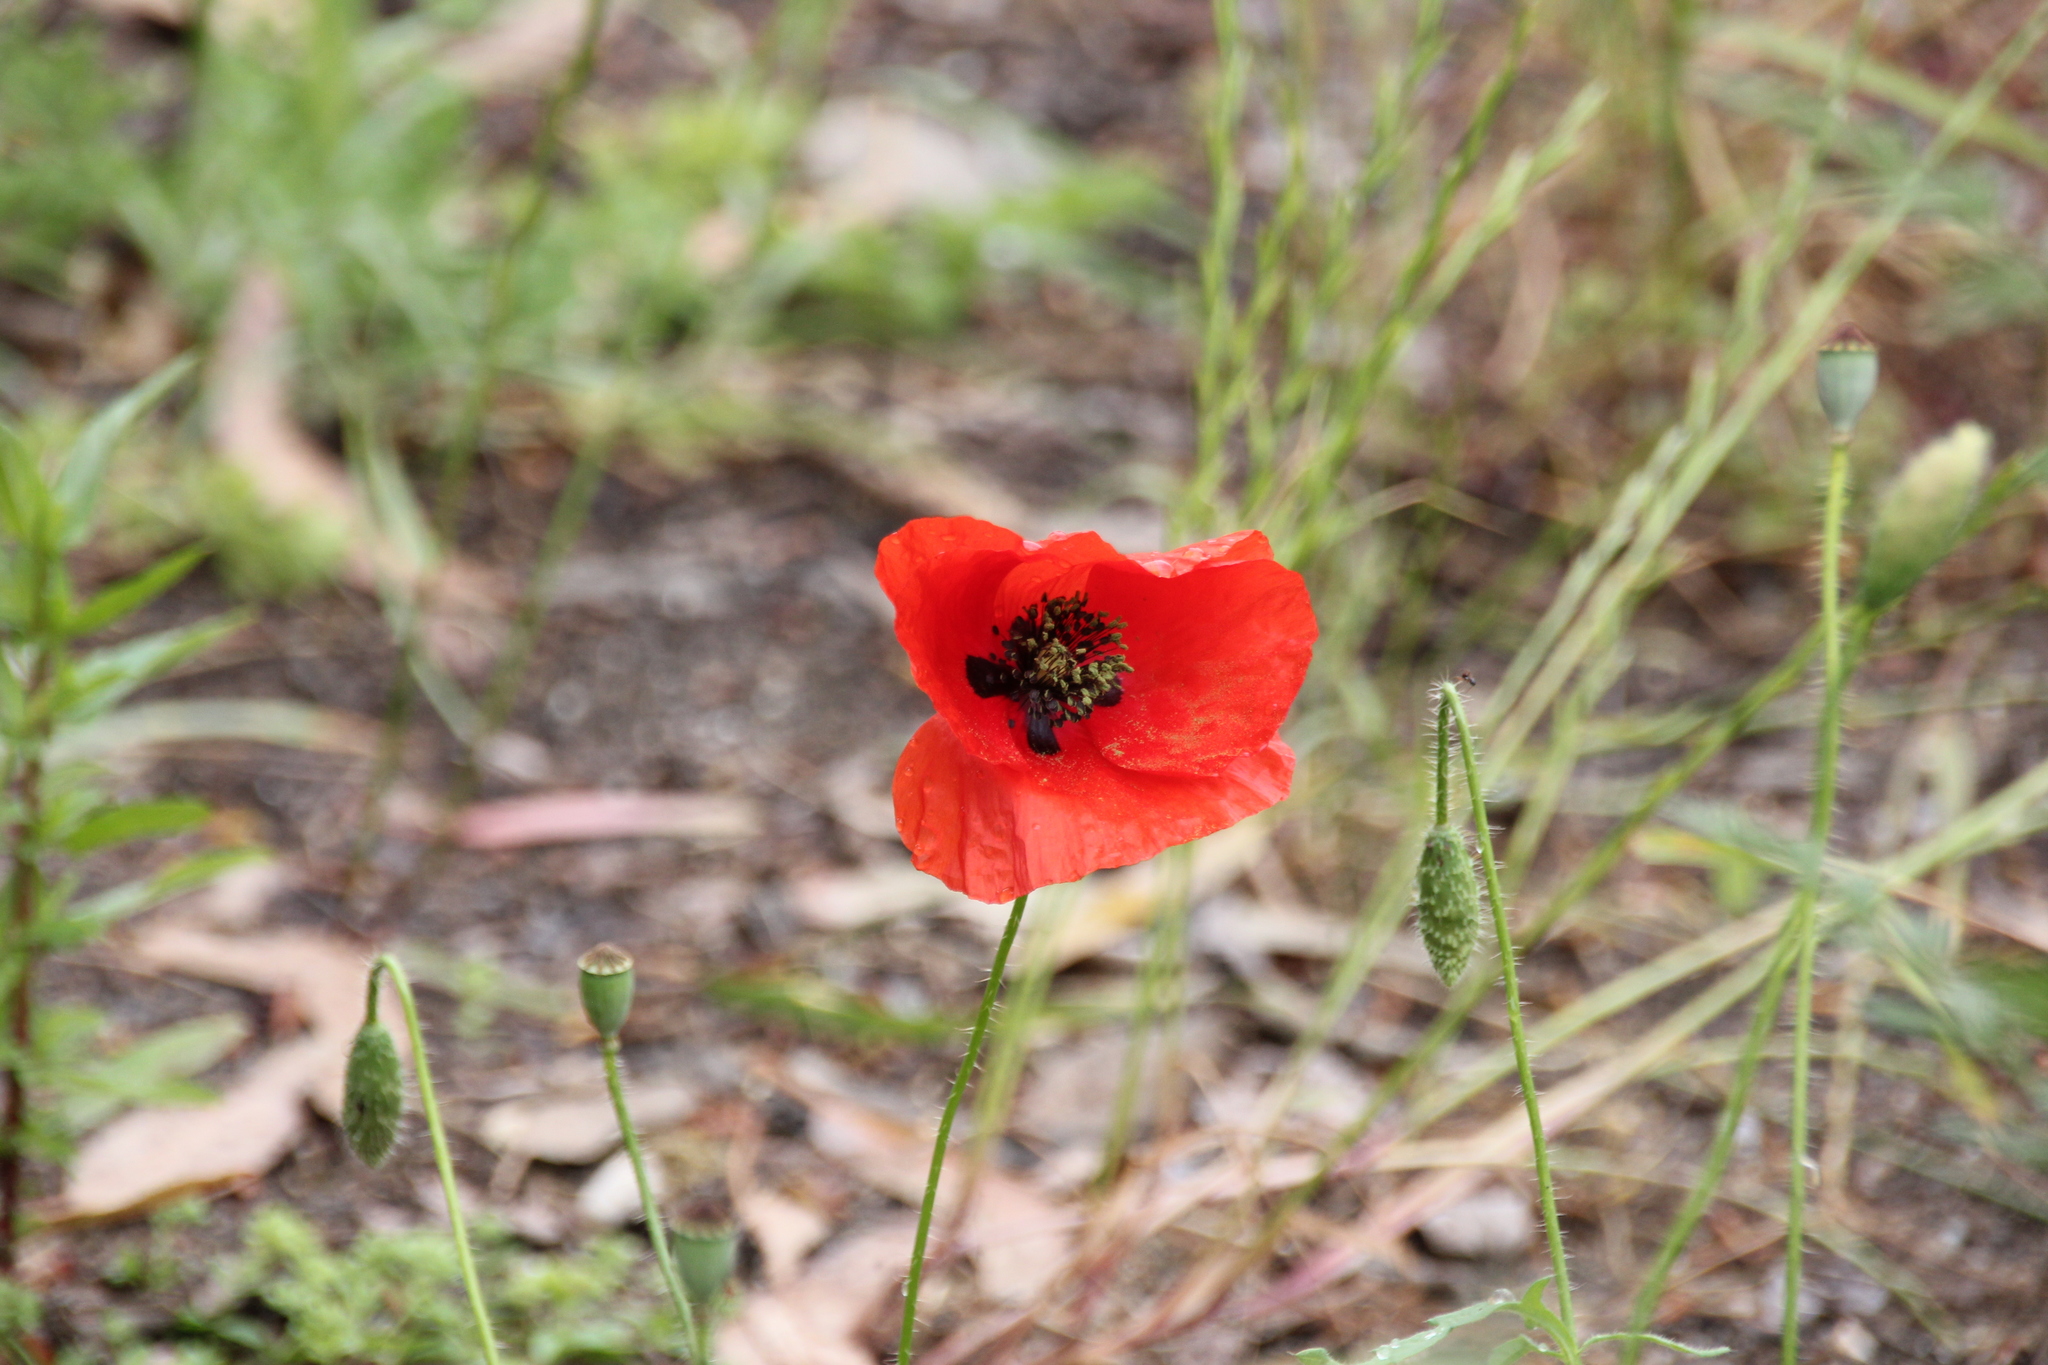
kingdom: Plantae
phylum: Tracheophyta
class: Magnoliopsida
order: Ranunculales
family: Papaveraceae
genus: Papaver
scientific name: Papaver rhoeas
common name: Corn poppy
